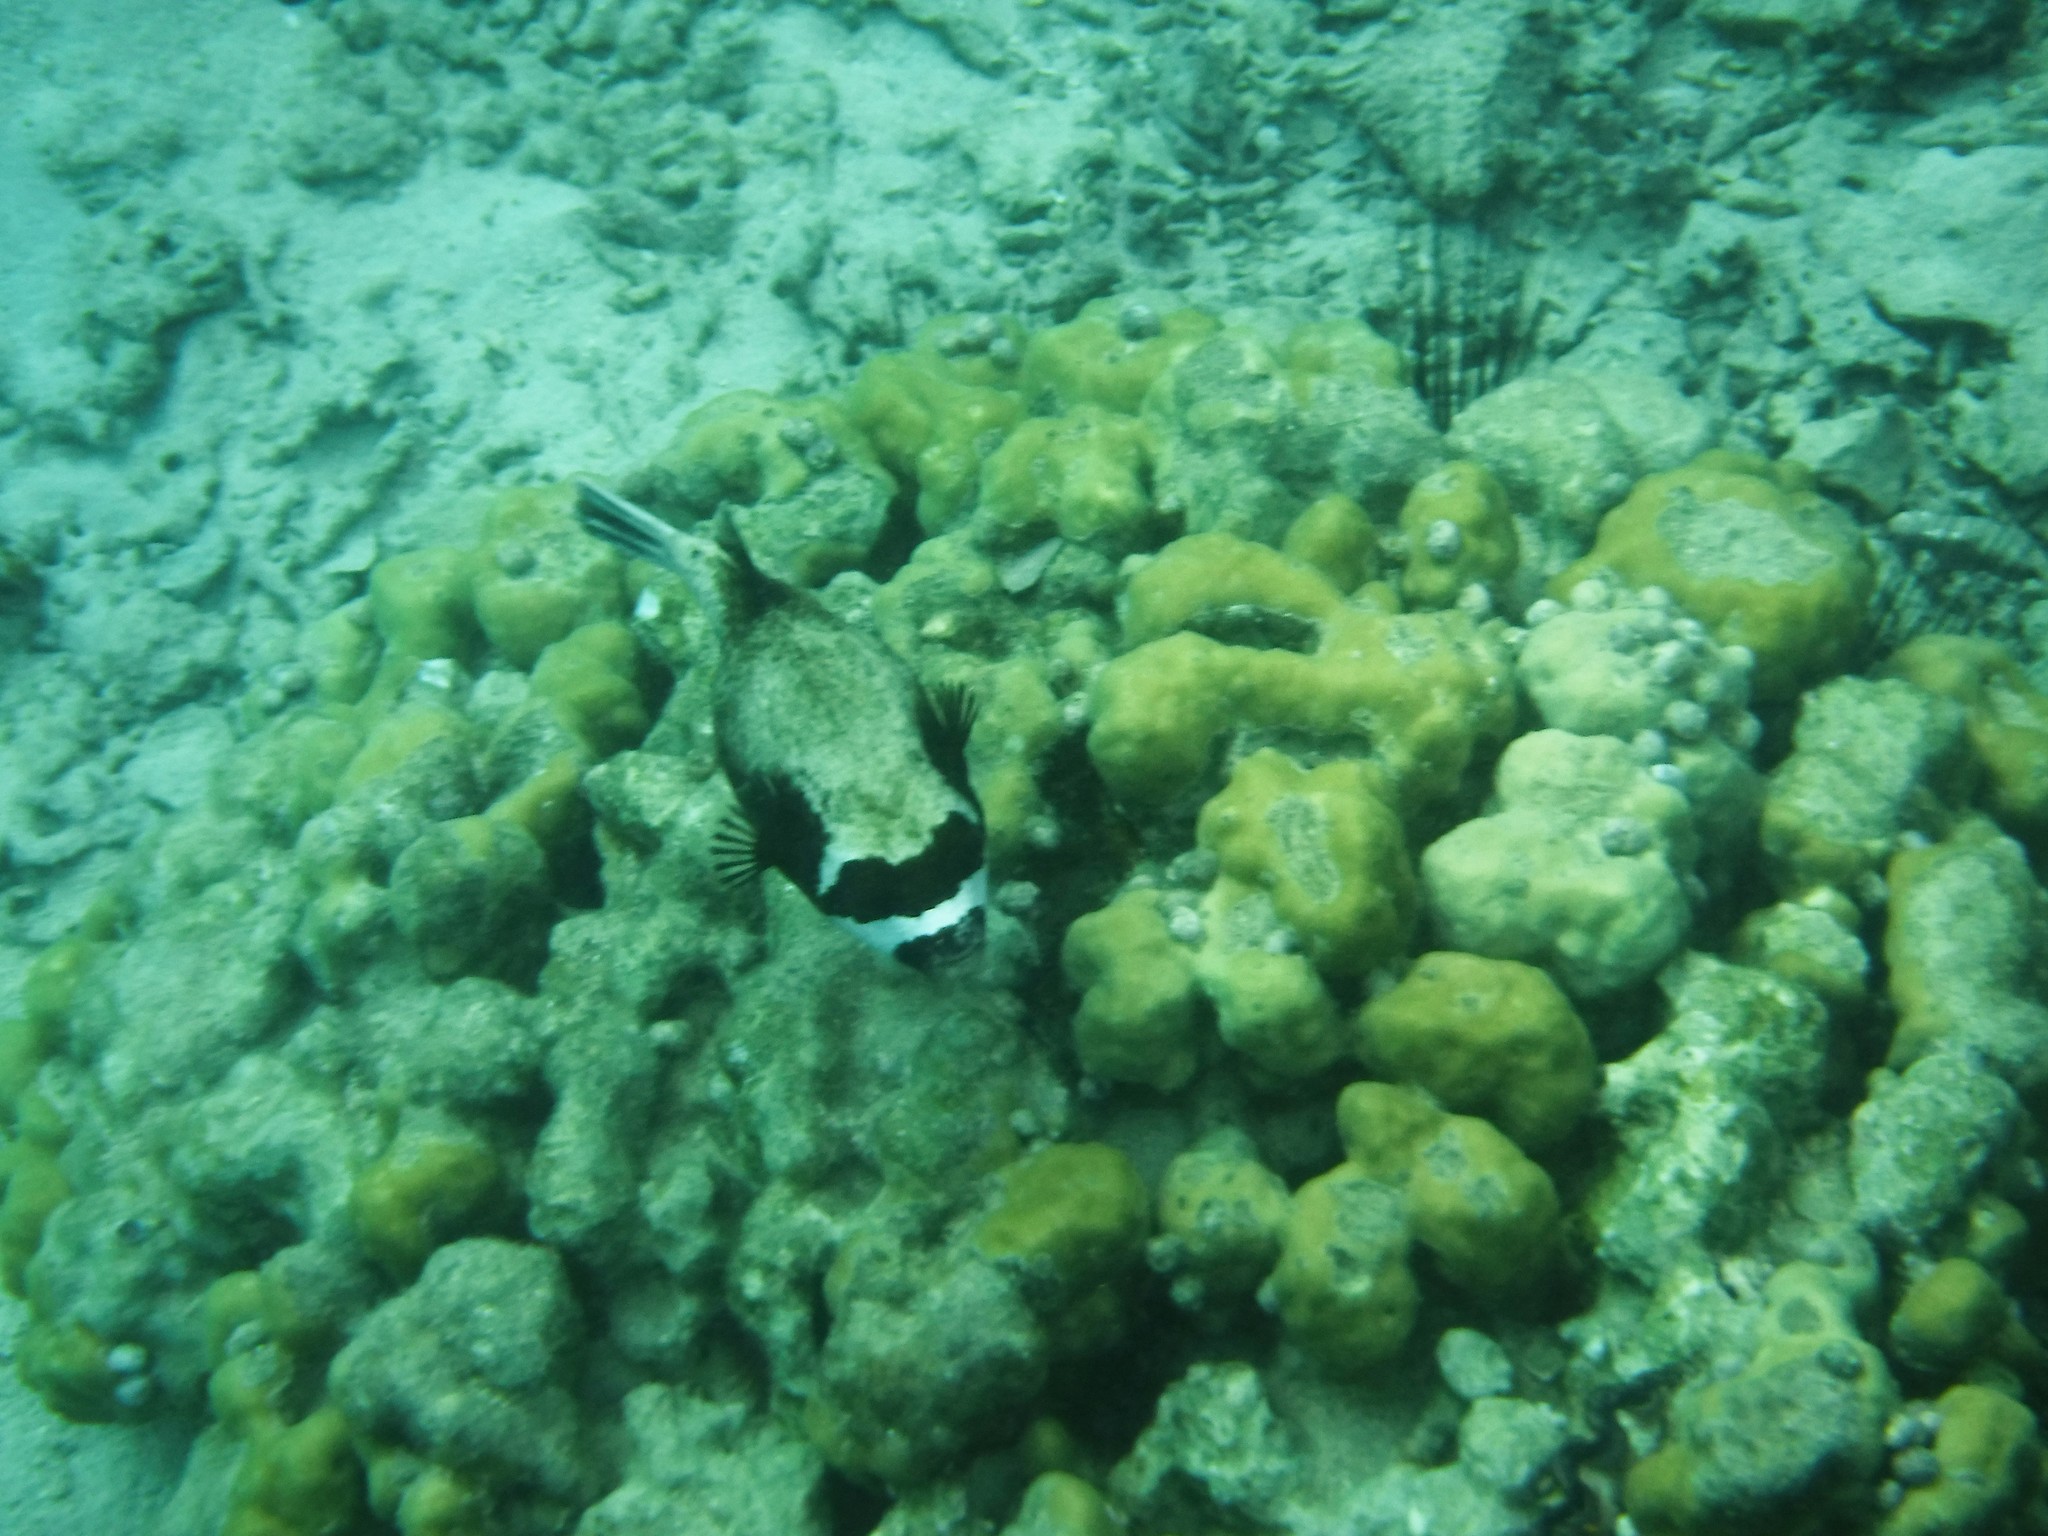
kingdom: Animalia
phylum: Chordata
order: Tetraodontiformes
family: Tetraodontidae
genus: Arothron
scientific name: Arothron diadematus
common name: Masked puffer
